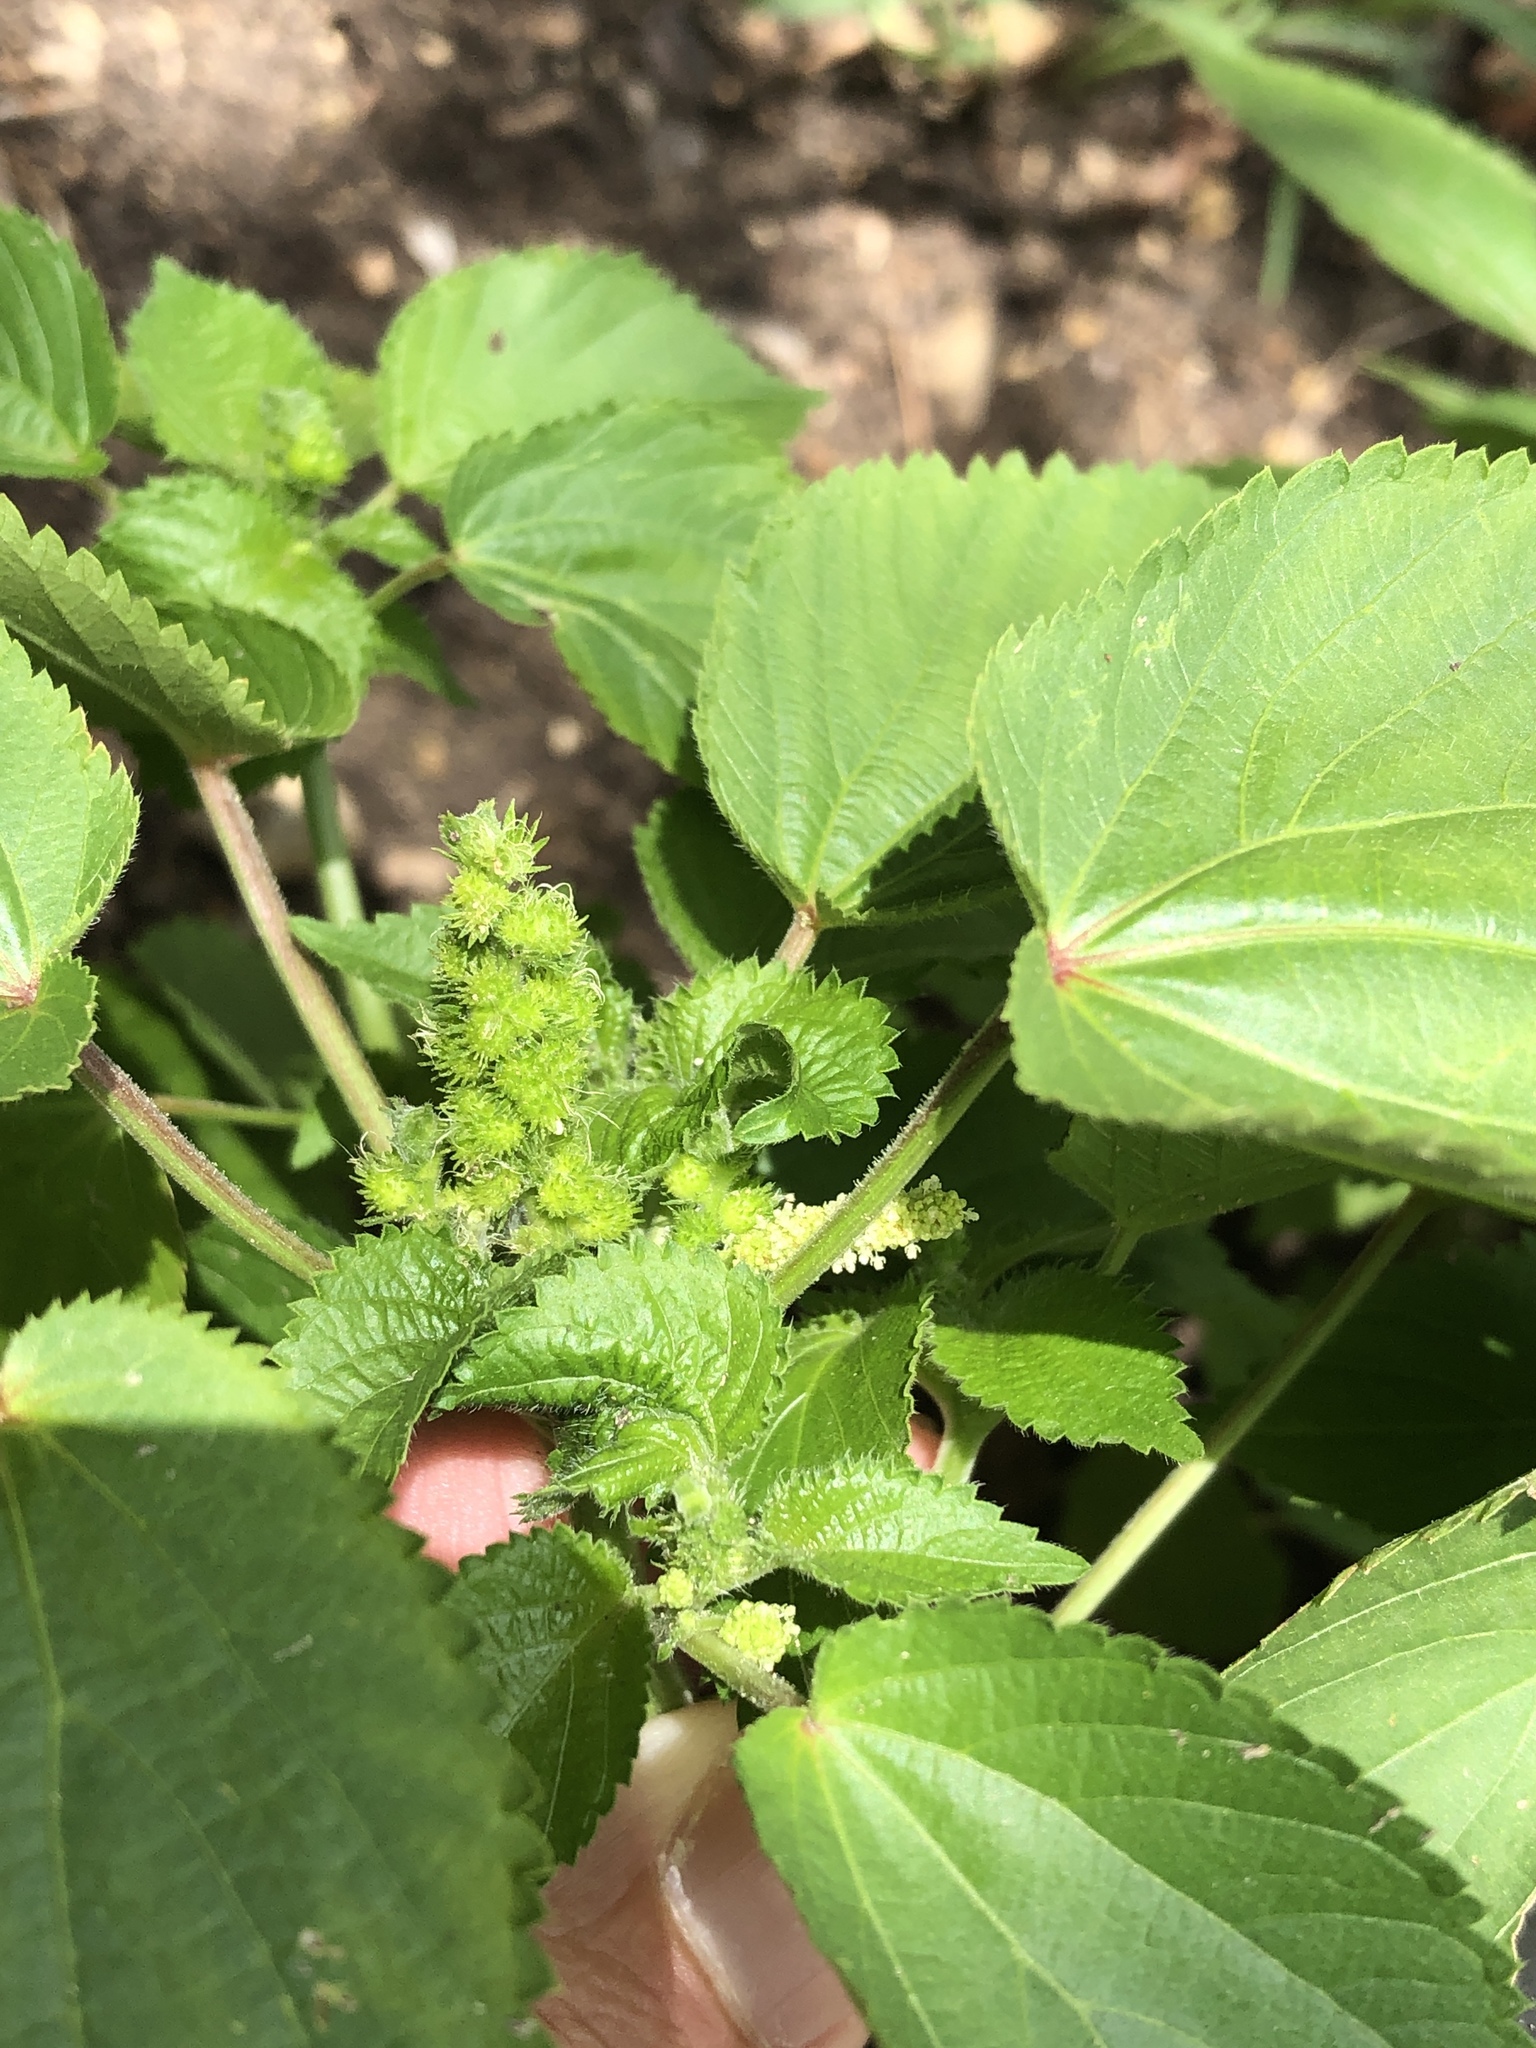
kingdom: Plantae
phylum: Tracheophyta
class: Magnoliopsida
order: Malpighiales
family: Euphorbiaceae
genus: Acalypha
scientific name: Acalypha ostryifolia
